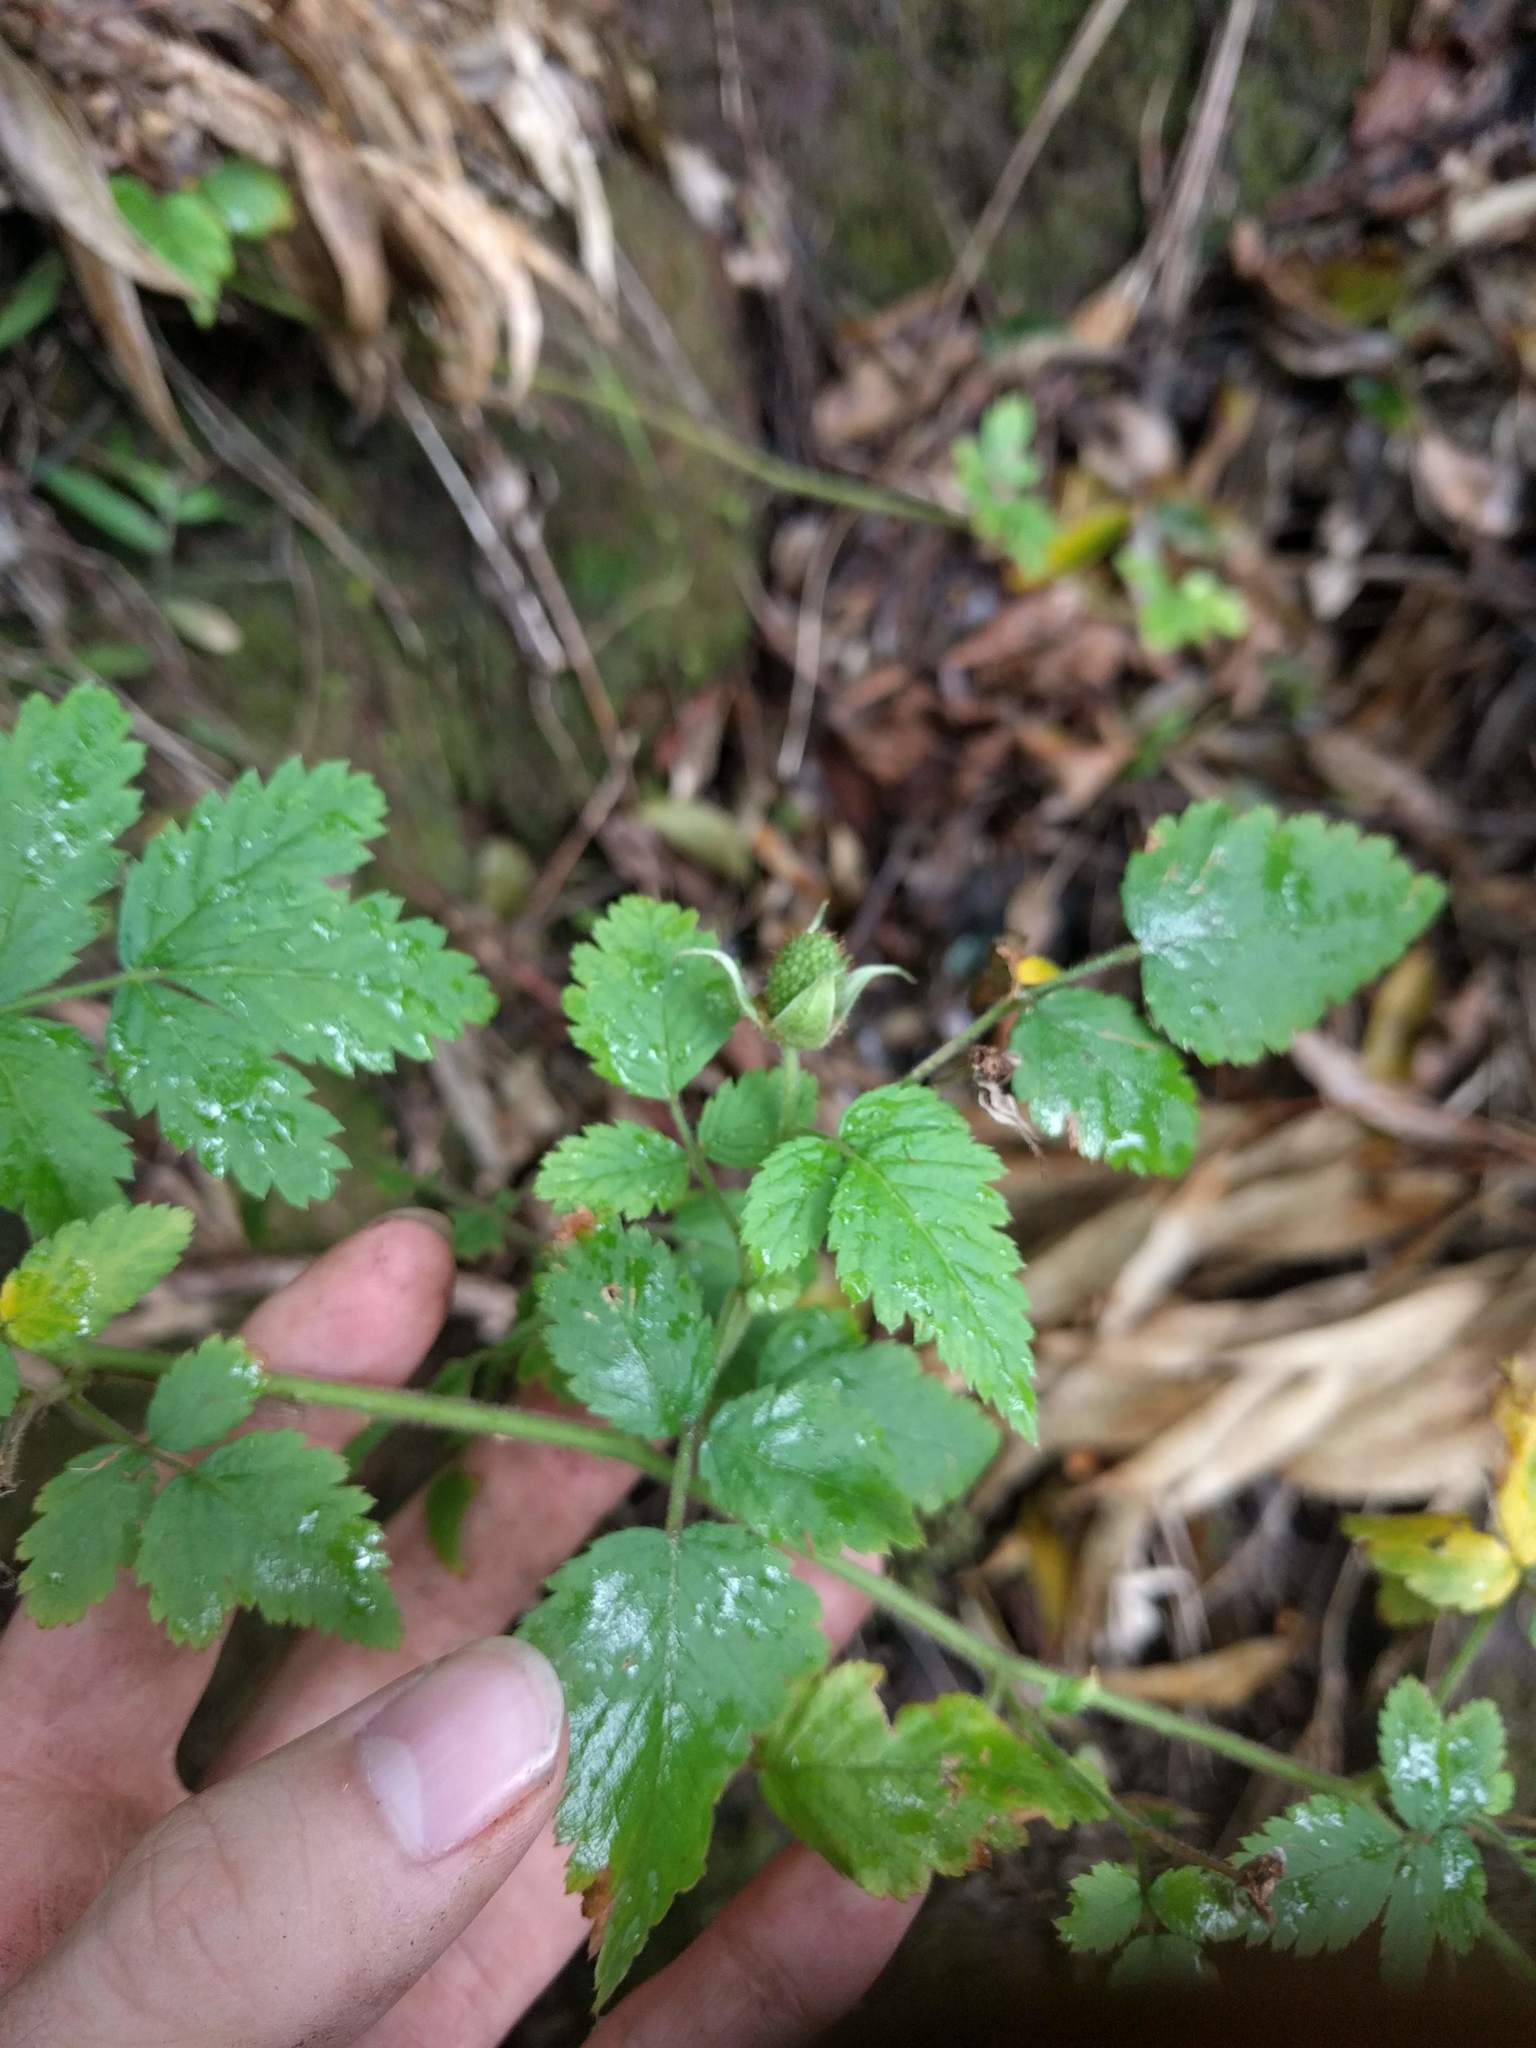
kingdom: Plantae
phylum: Tracheophyta
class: Magnoliopsida
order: Rosales
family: Rosaceae
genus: Rubus
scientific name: Rubus rosifolius
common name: Roseleaf raspberry
